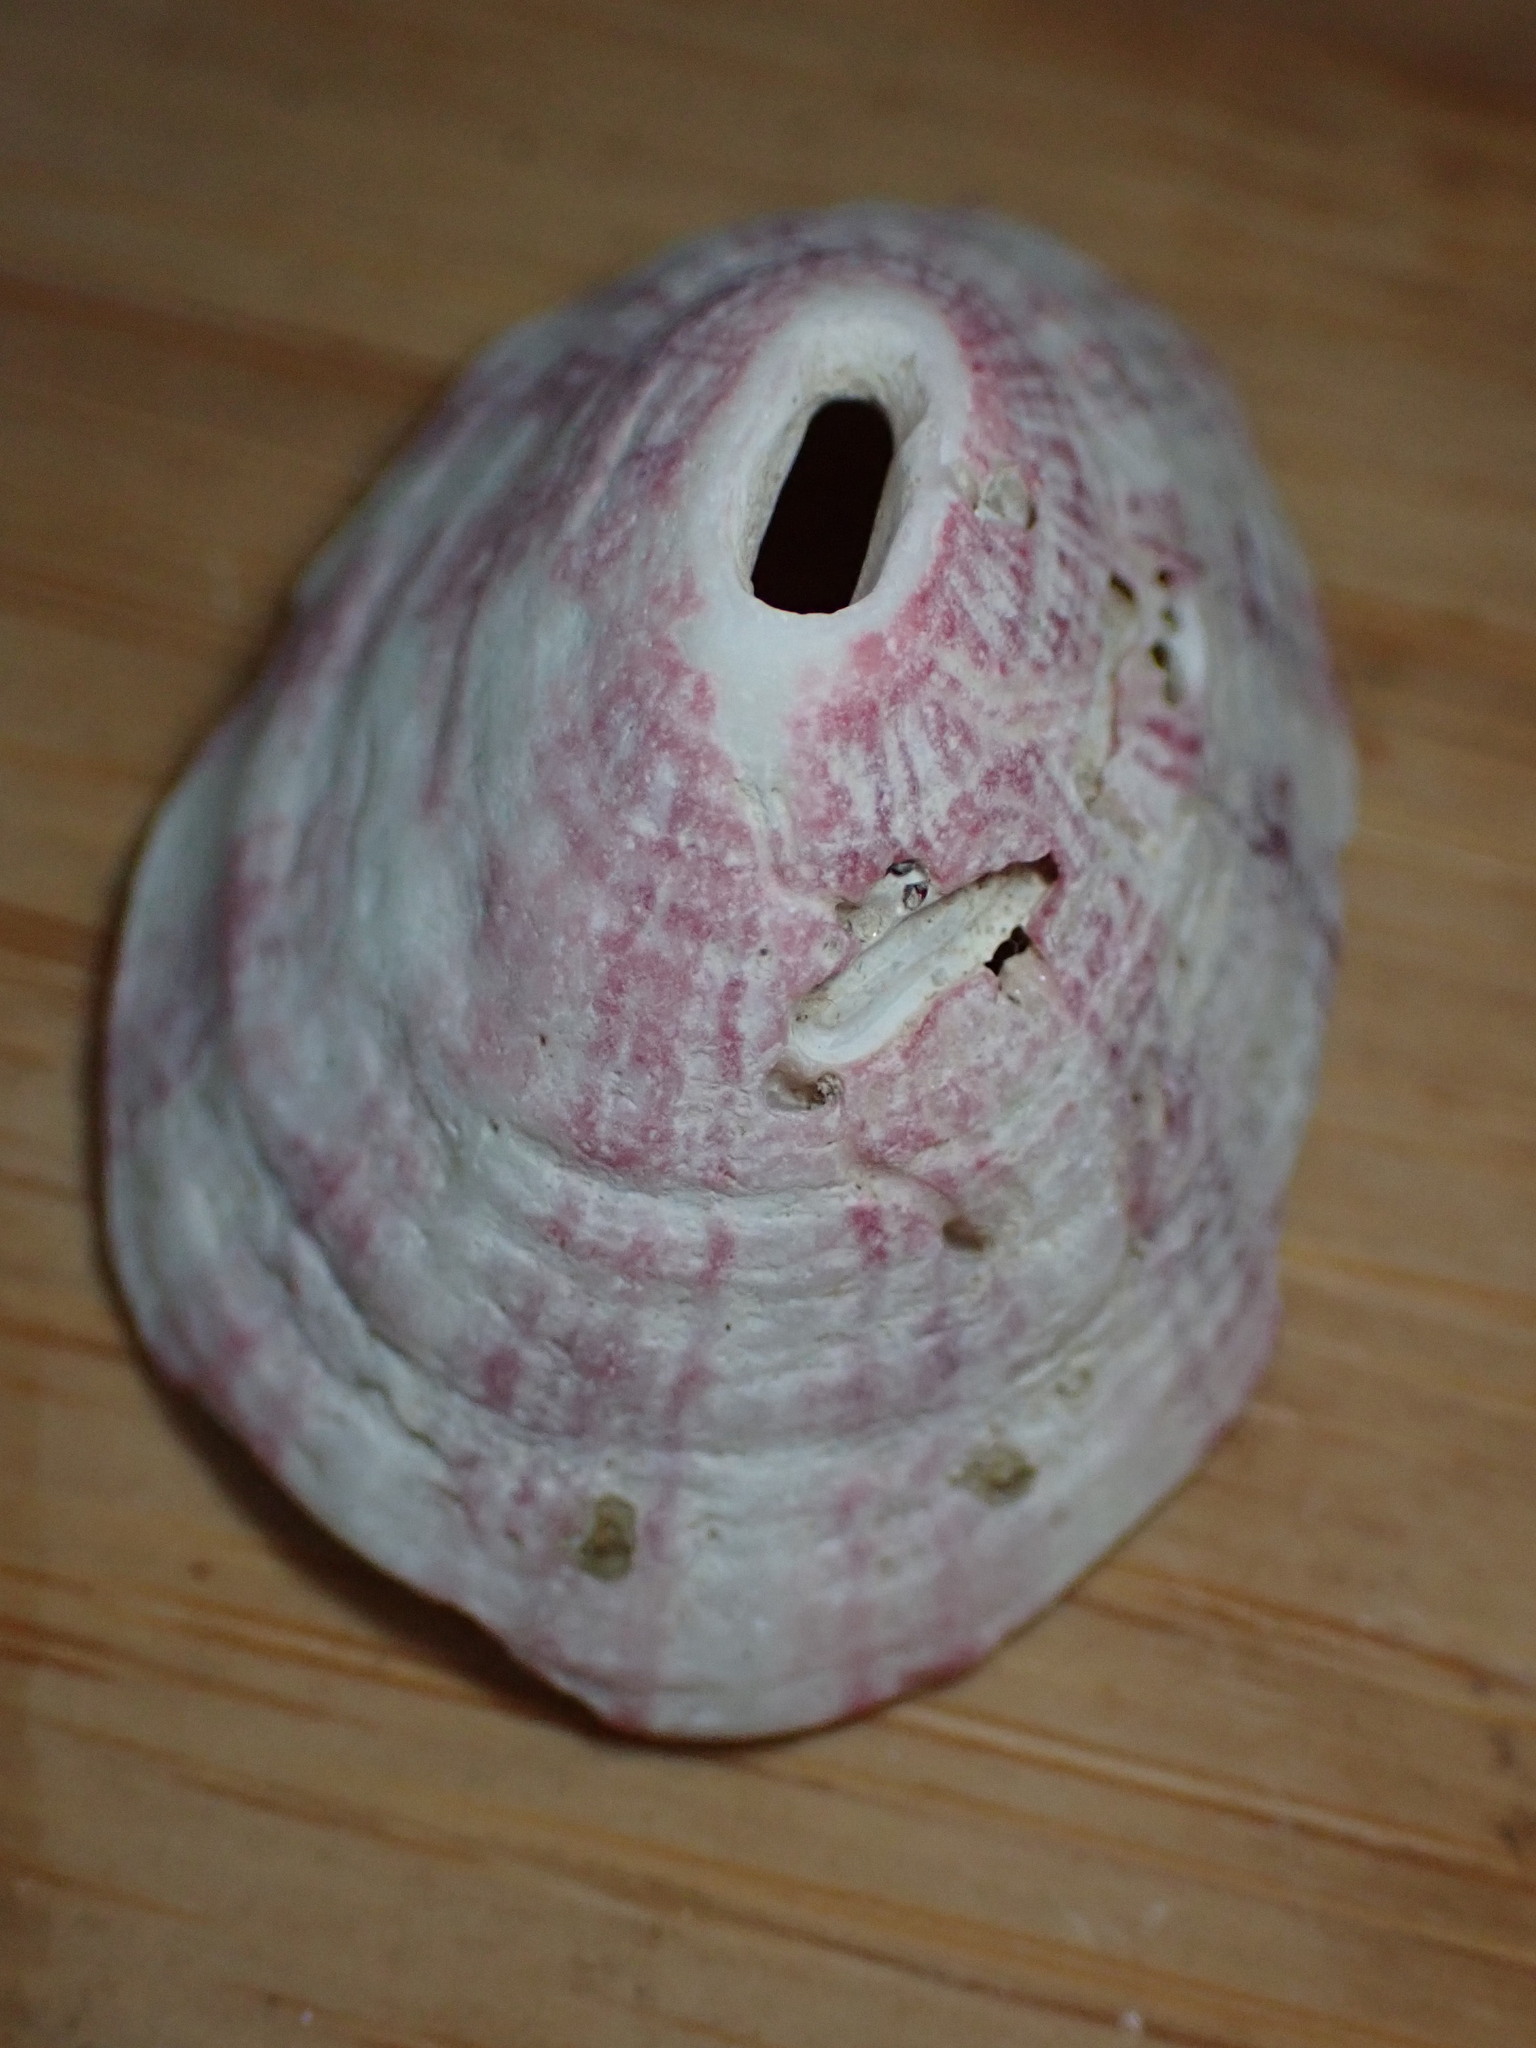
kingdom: Animalia
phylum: Mollusca
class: Gastropoda
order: Lepetellida
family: Fissurellidae
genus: Fissurella
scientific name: Fissurella volcano
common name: Volcano keyhole limpet
